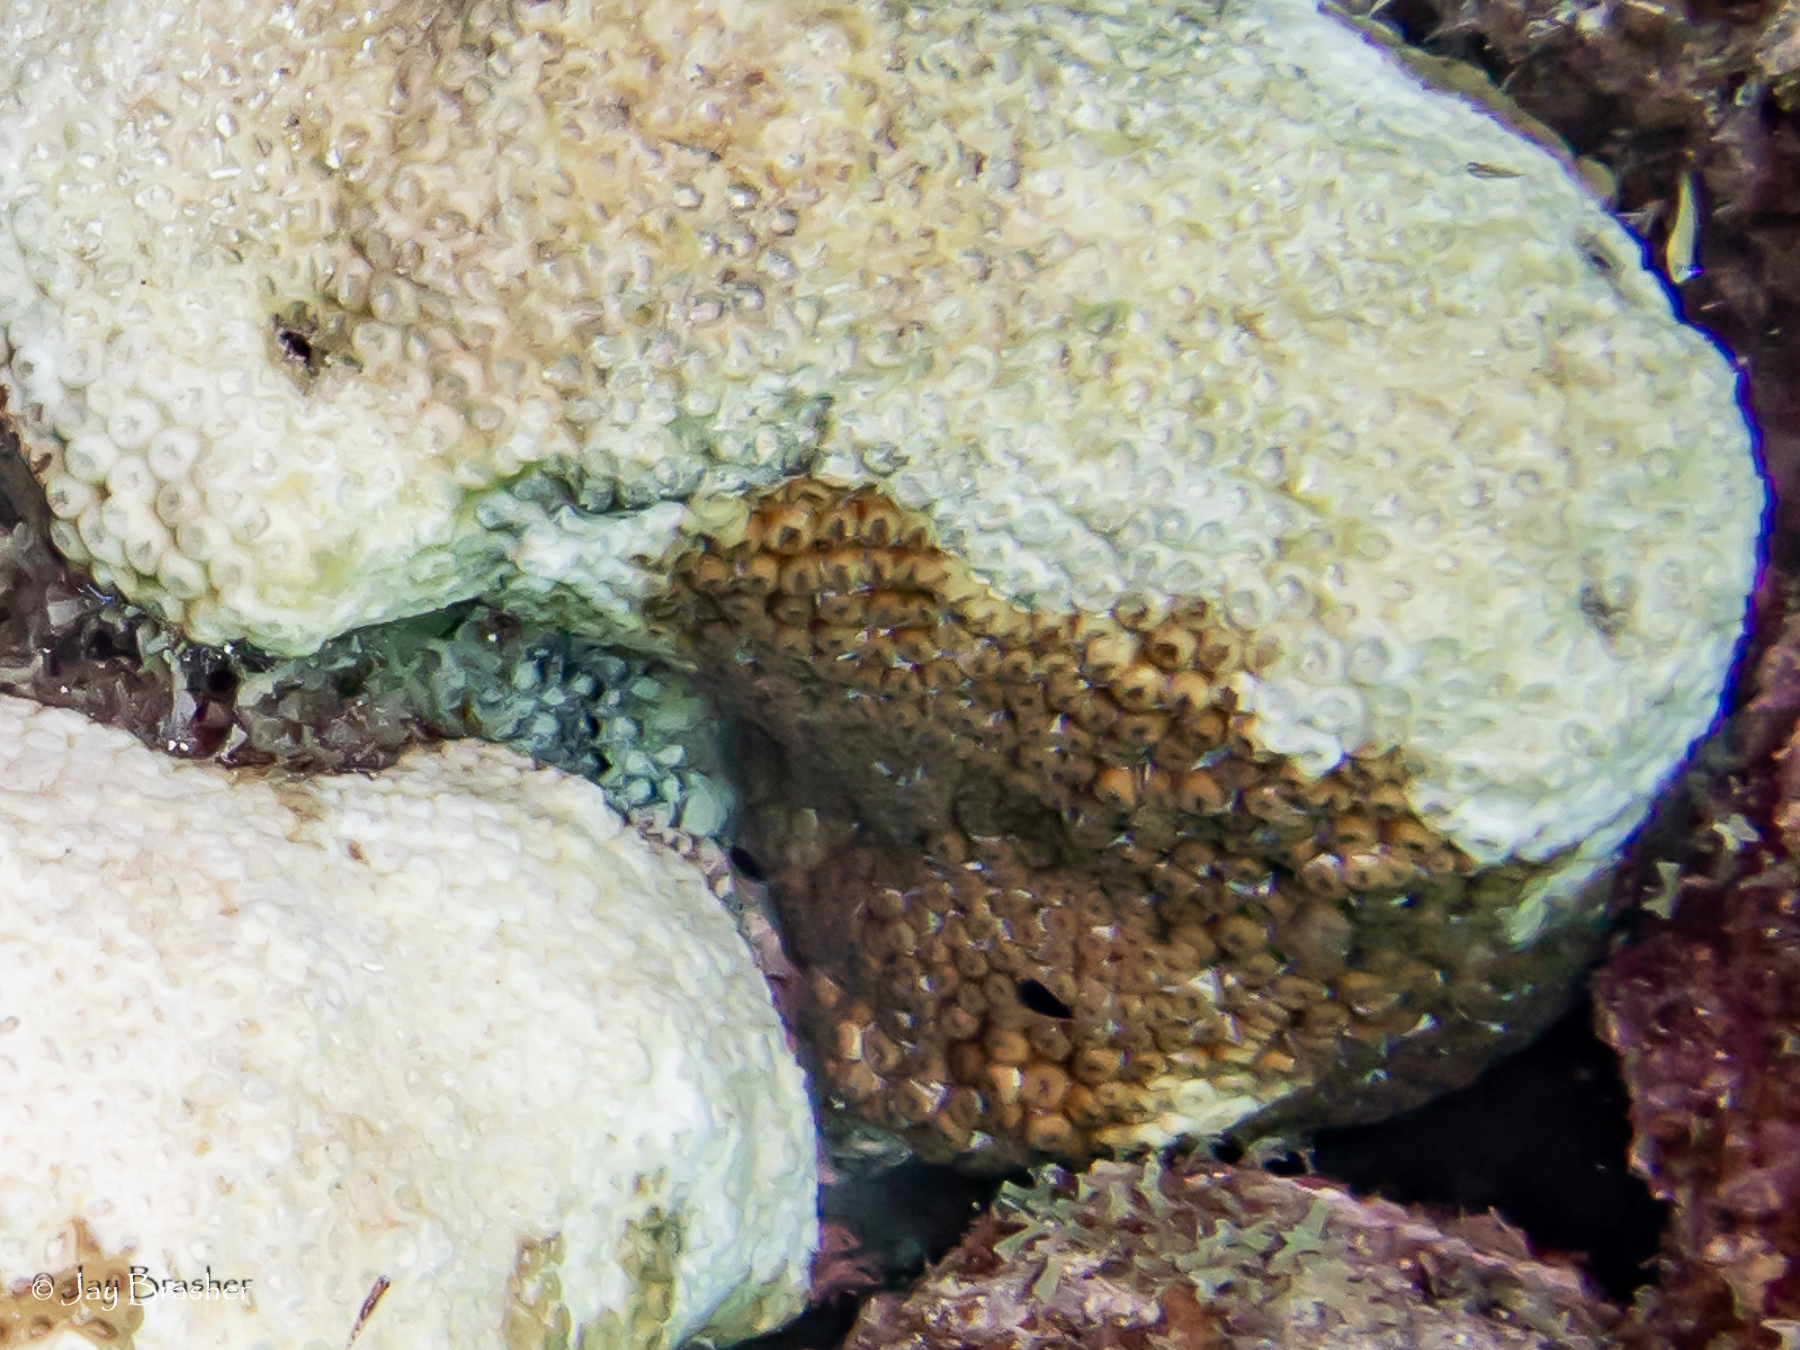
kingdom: Animalia
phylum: Cnidaria
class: Anthozoa
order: Scleractinia
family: Montastraeidae
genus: Montastraea
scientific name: Montastraea cavernosa
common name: Great star coral
